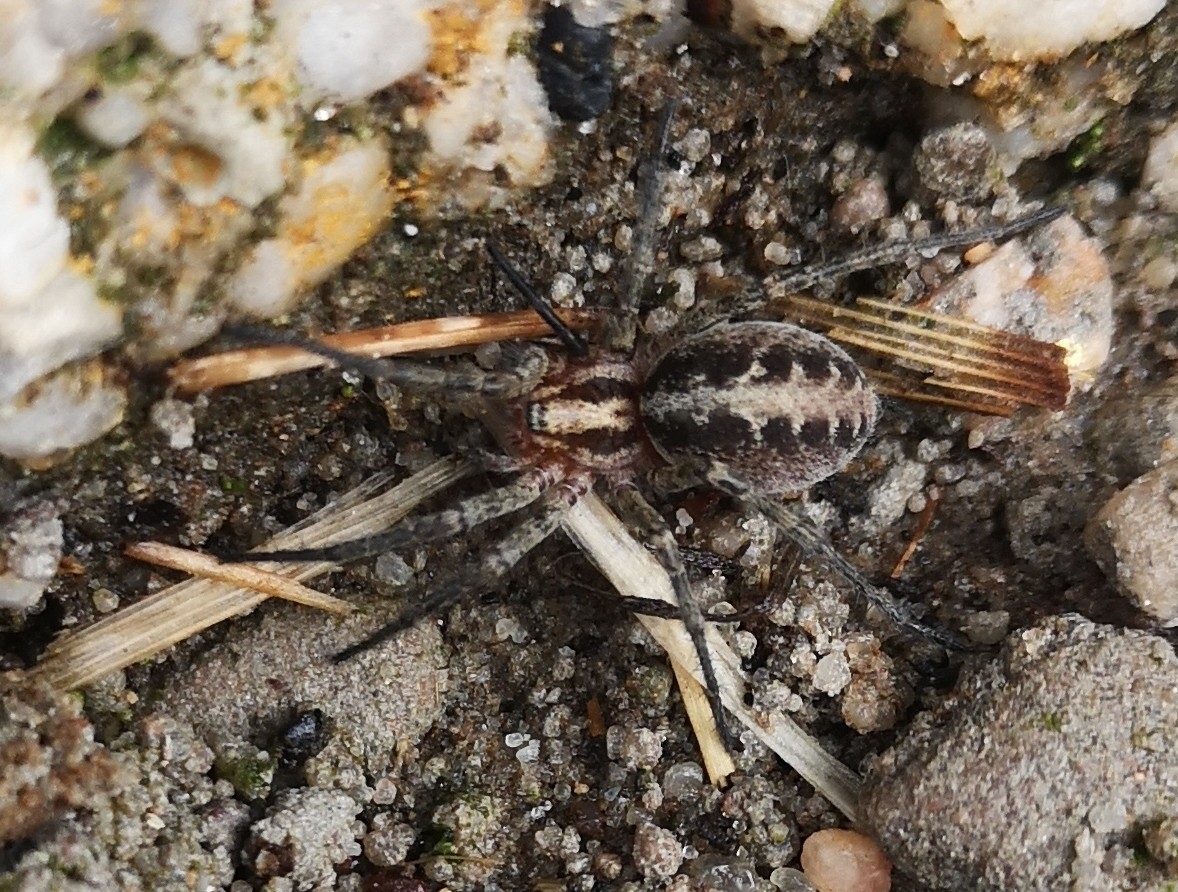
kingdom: Animalia
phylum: Arthropoda
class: Arachnida
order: Araneae
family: Agelenidae
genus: Agelena
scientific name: Agelena labyrinthica
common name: Labyrinth spider
